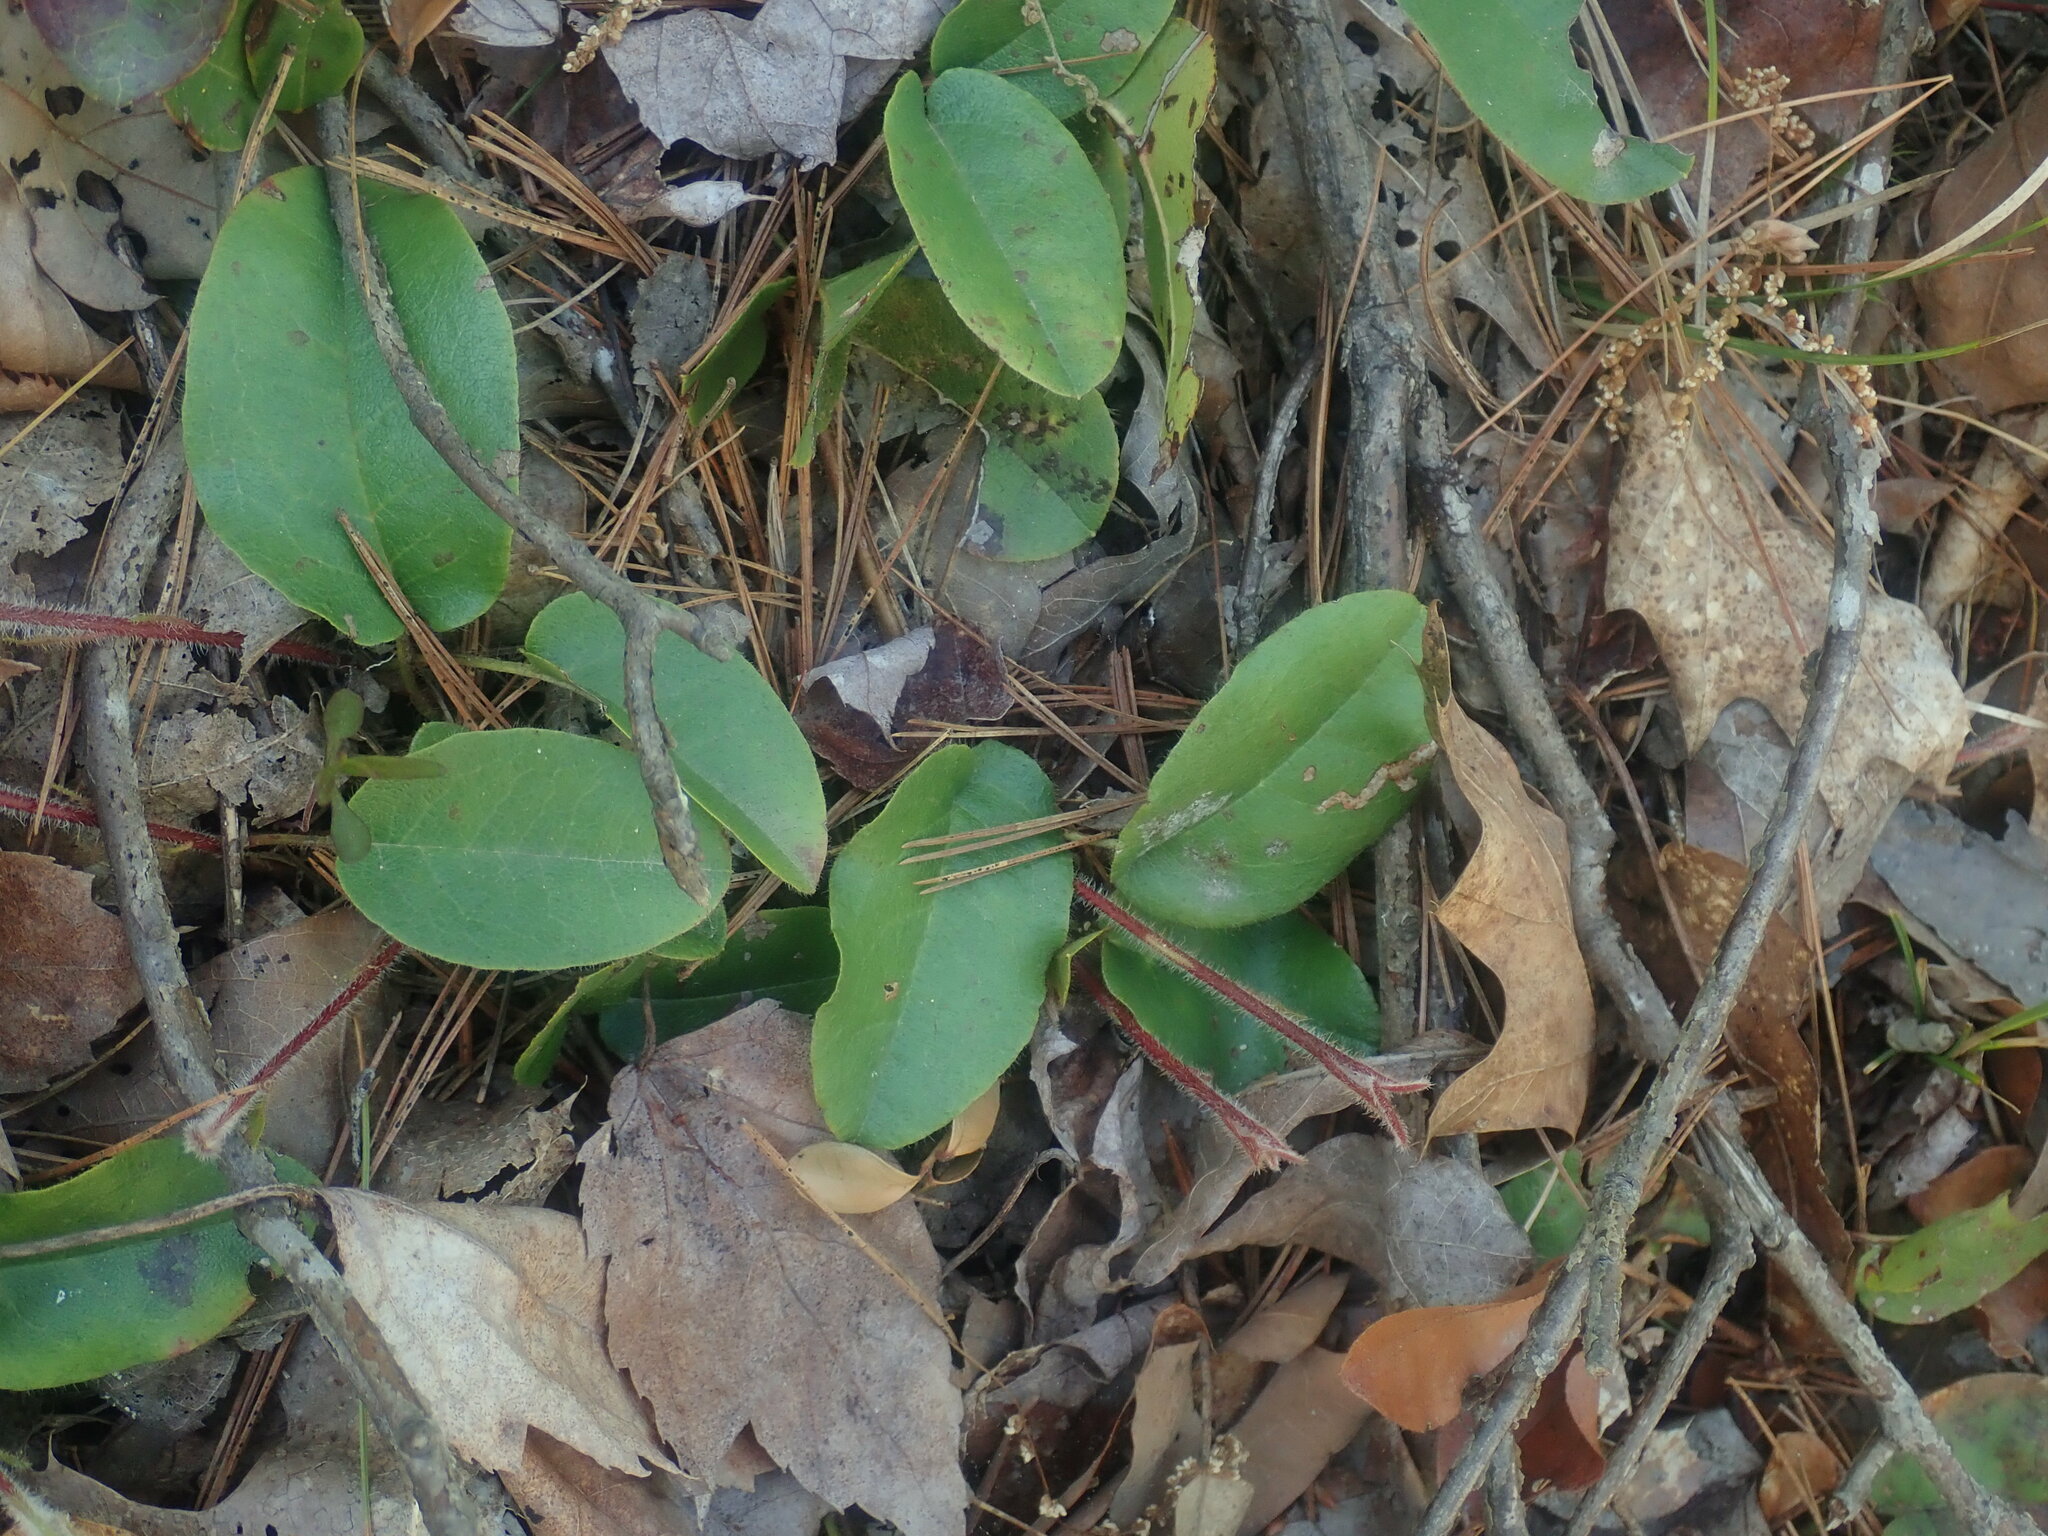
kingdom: Plantae
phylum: Tracheophyta
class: Magnoliopsida
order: Ericales
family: Ericaceae
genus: Epigaea
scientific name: Epigaea repens
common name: Gravelroot
